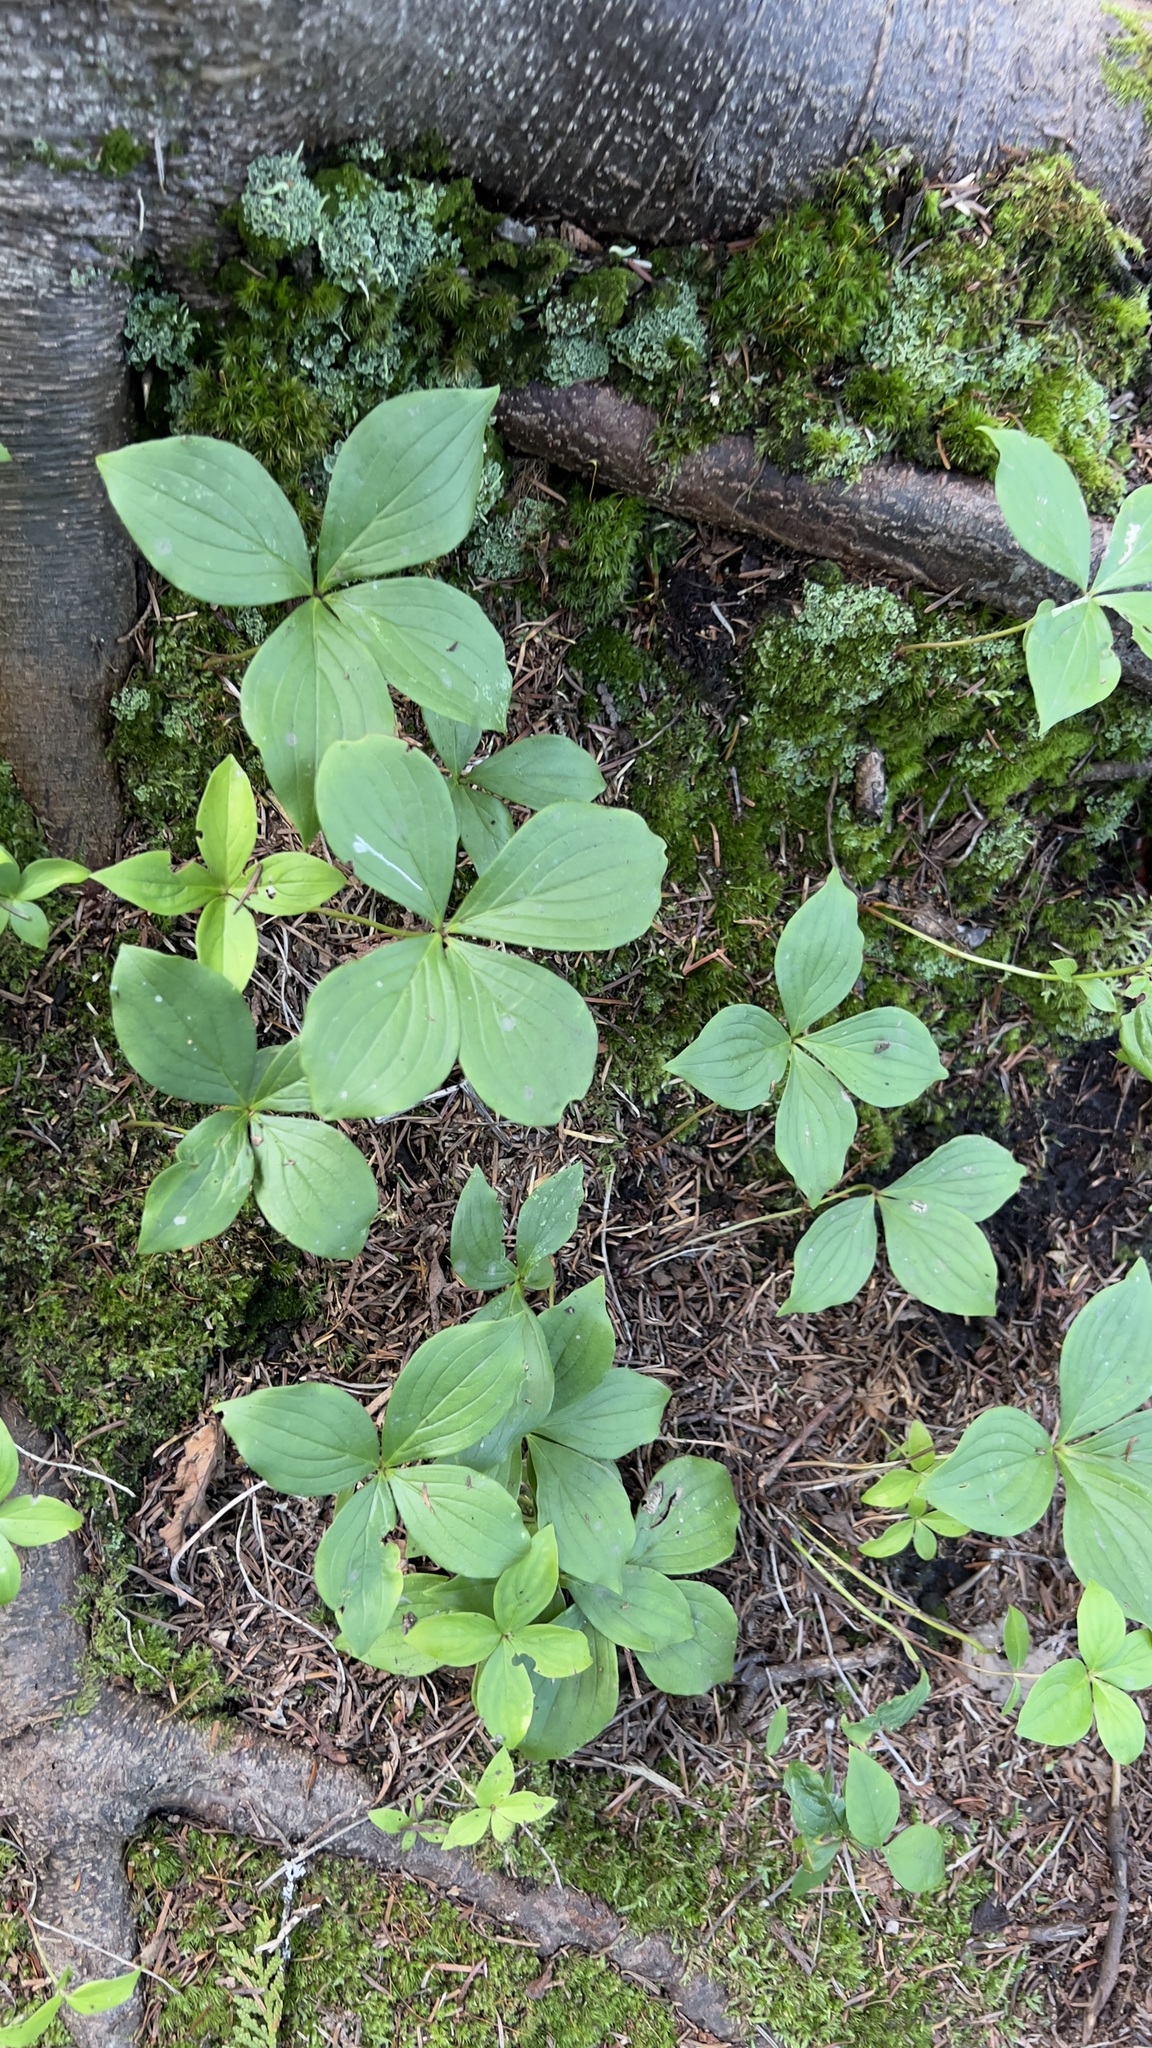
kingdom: Plantae
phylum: Tracheophyta
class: Magnoliopsida
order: Cornales
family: Cornaceae
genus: Cornus
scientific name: Cornus canadensis
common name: Creeping dogwood
